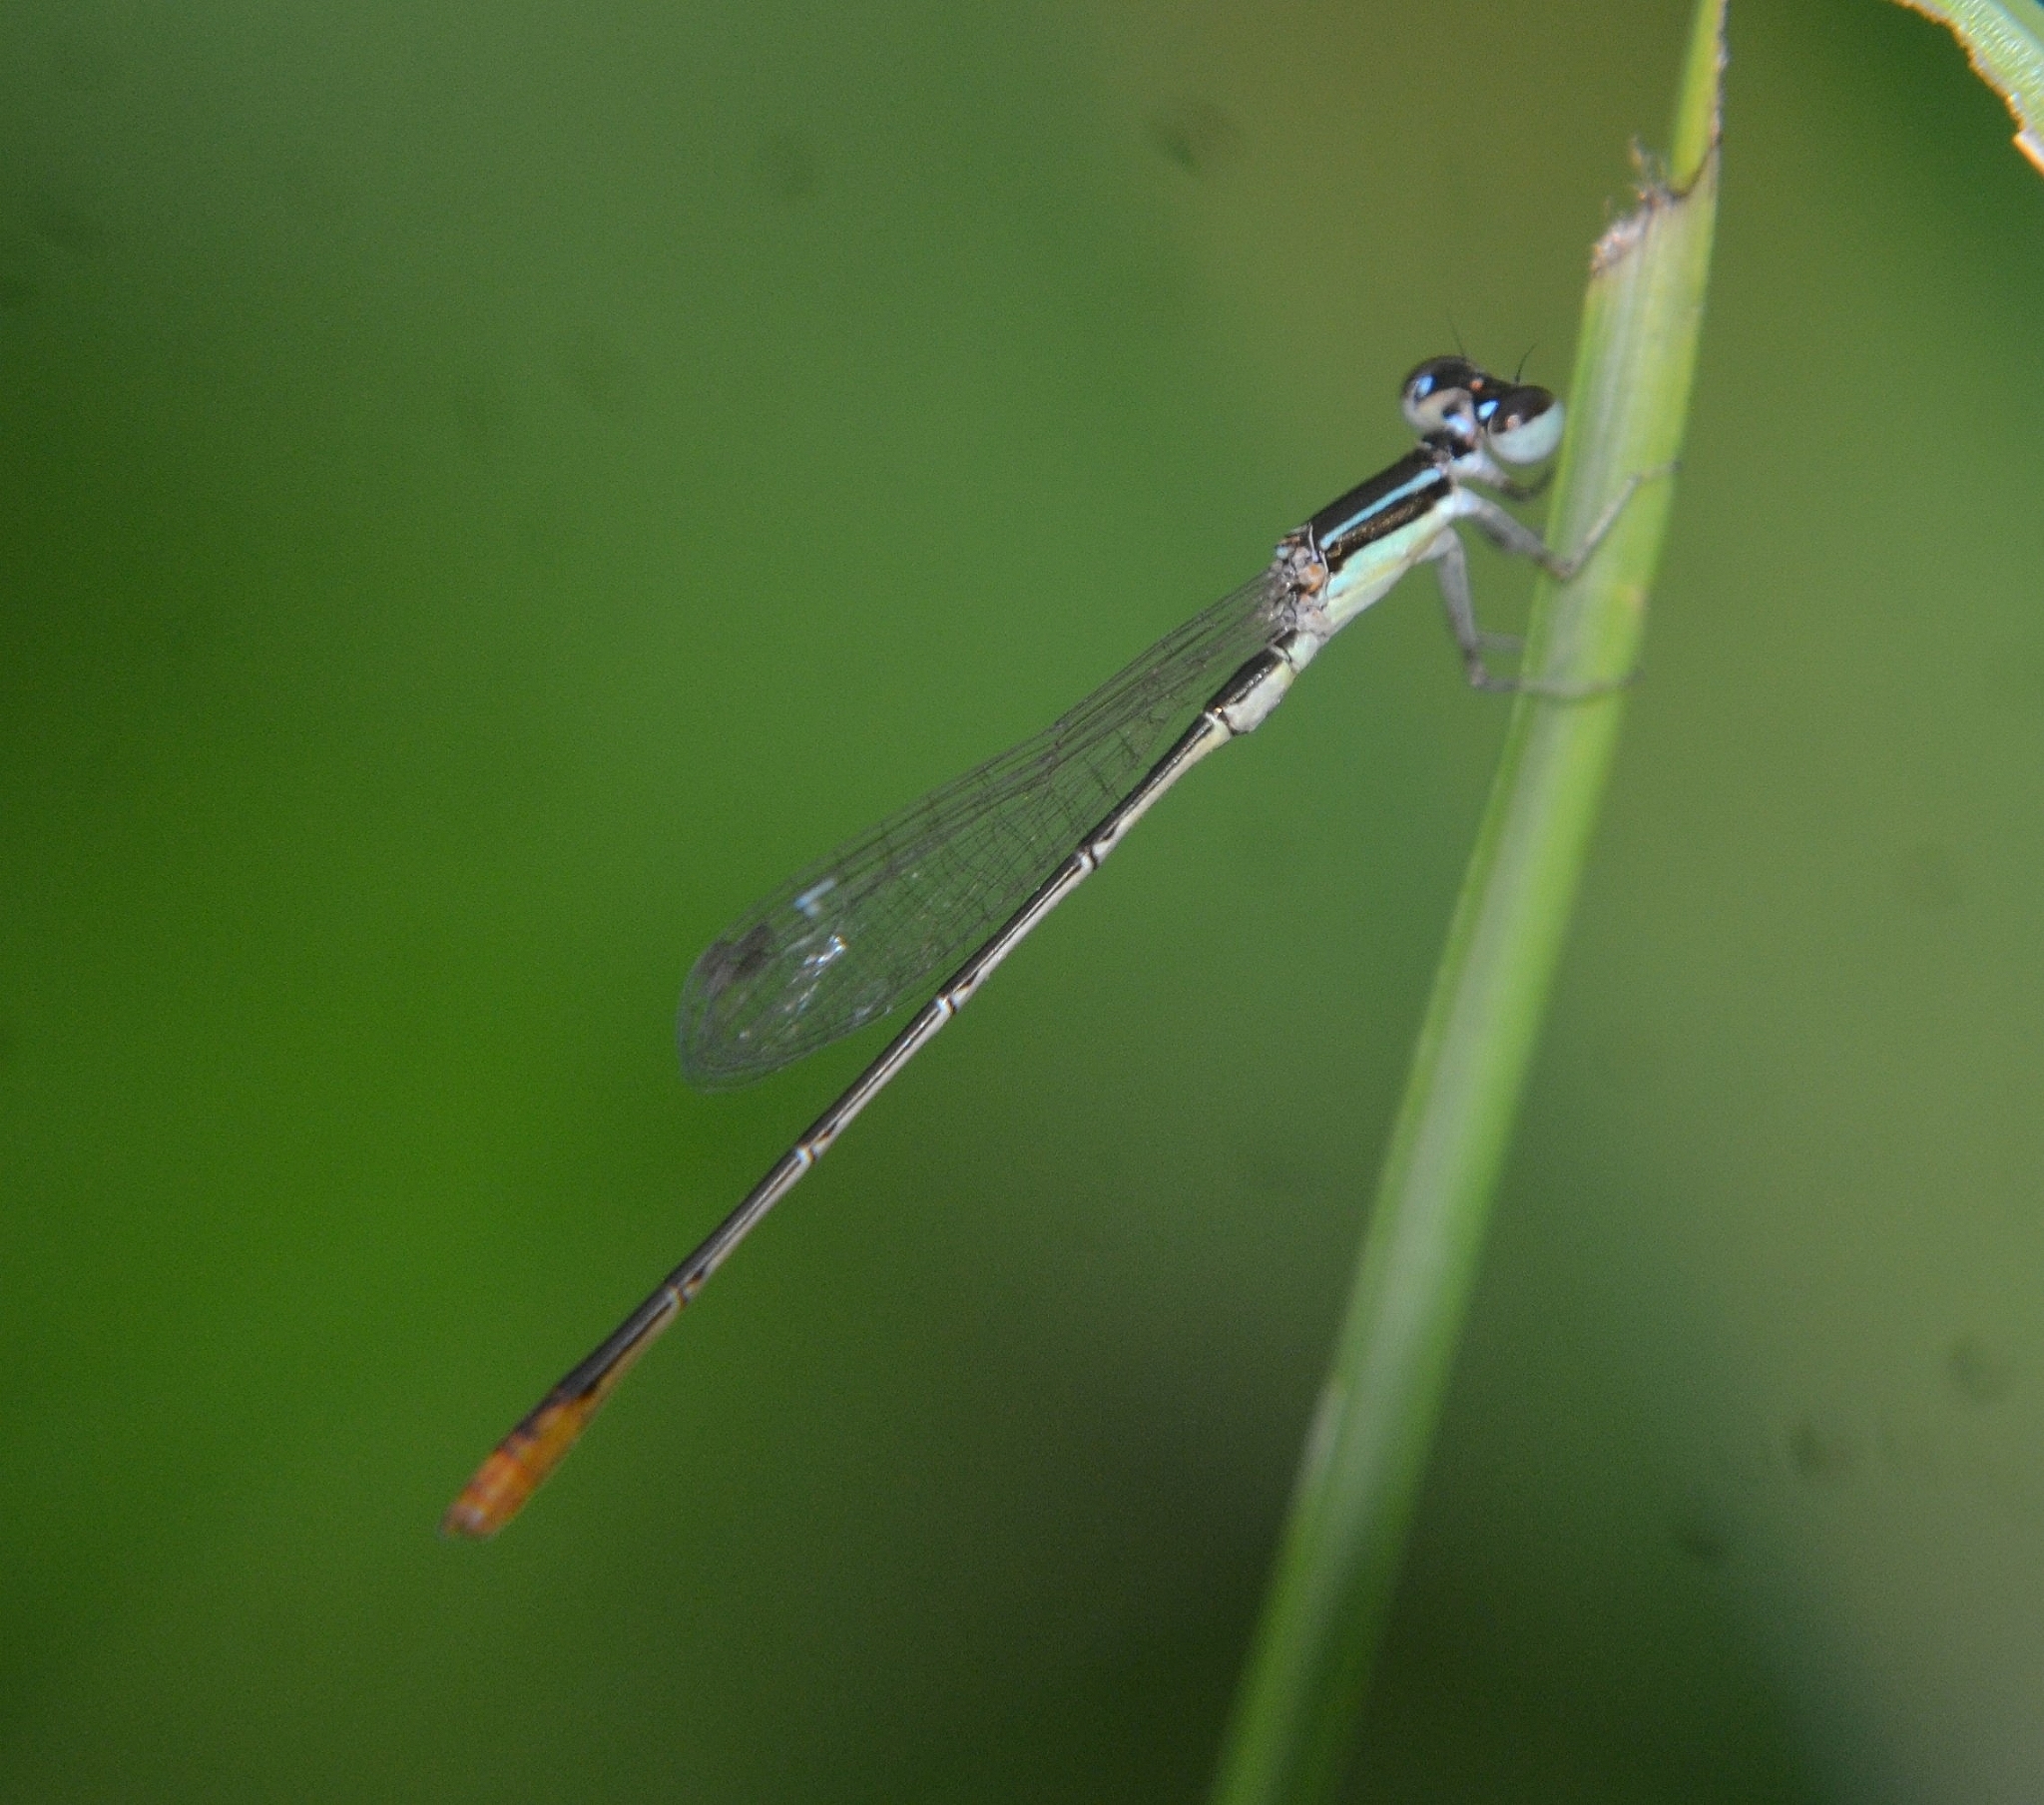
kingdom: Animalia
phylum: Arthropoda
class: Insecta
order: Odonata
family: Coenagrionidae
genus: Agriocnemis
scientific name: Agriocnemis pygmaea
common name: Pygmy wisp
